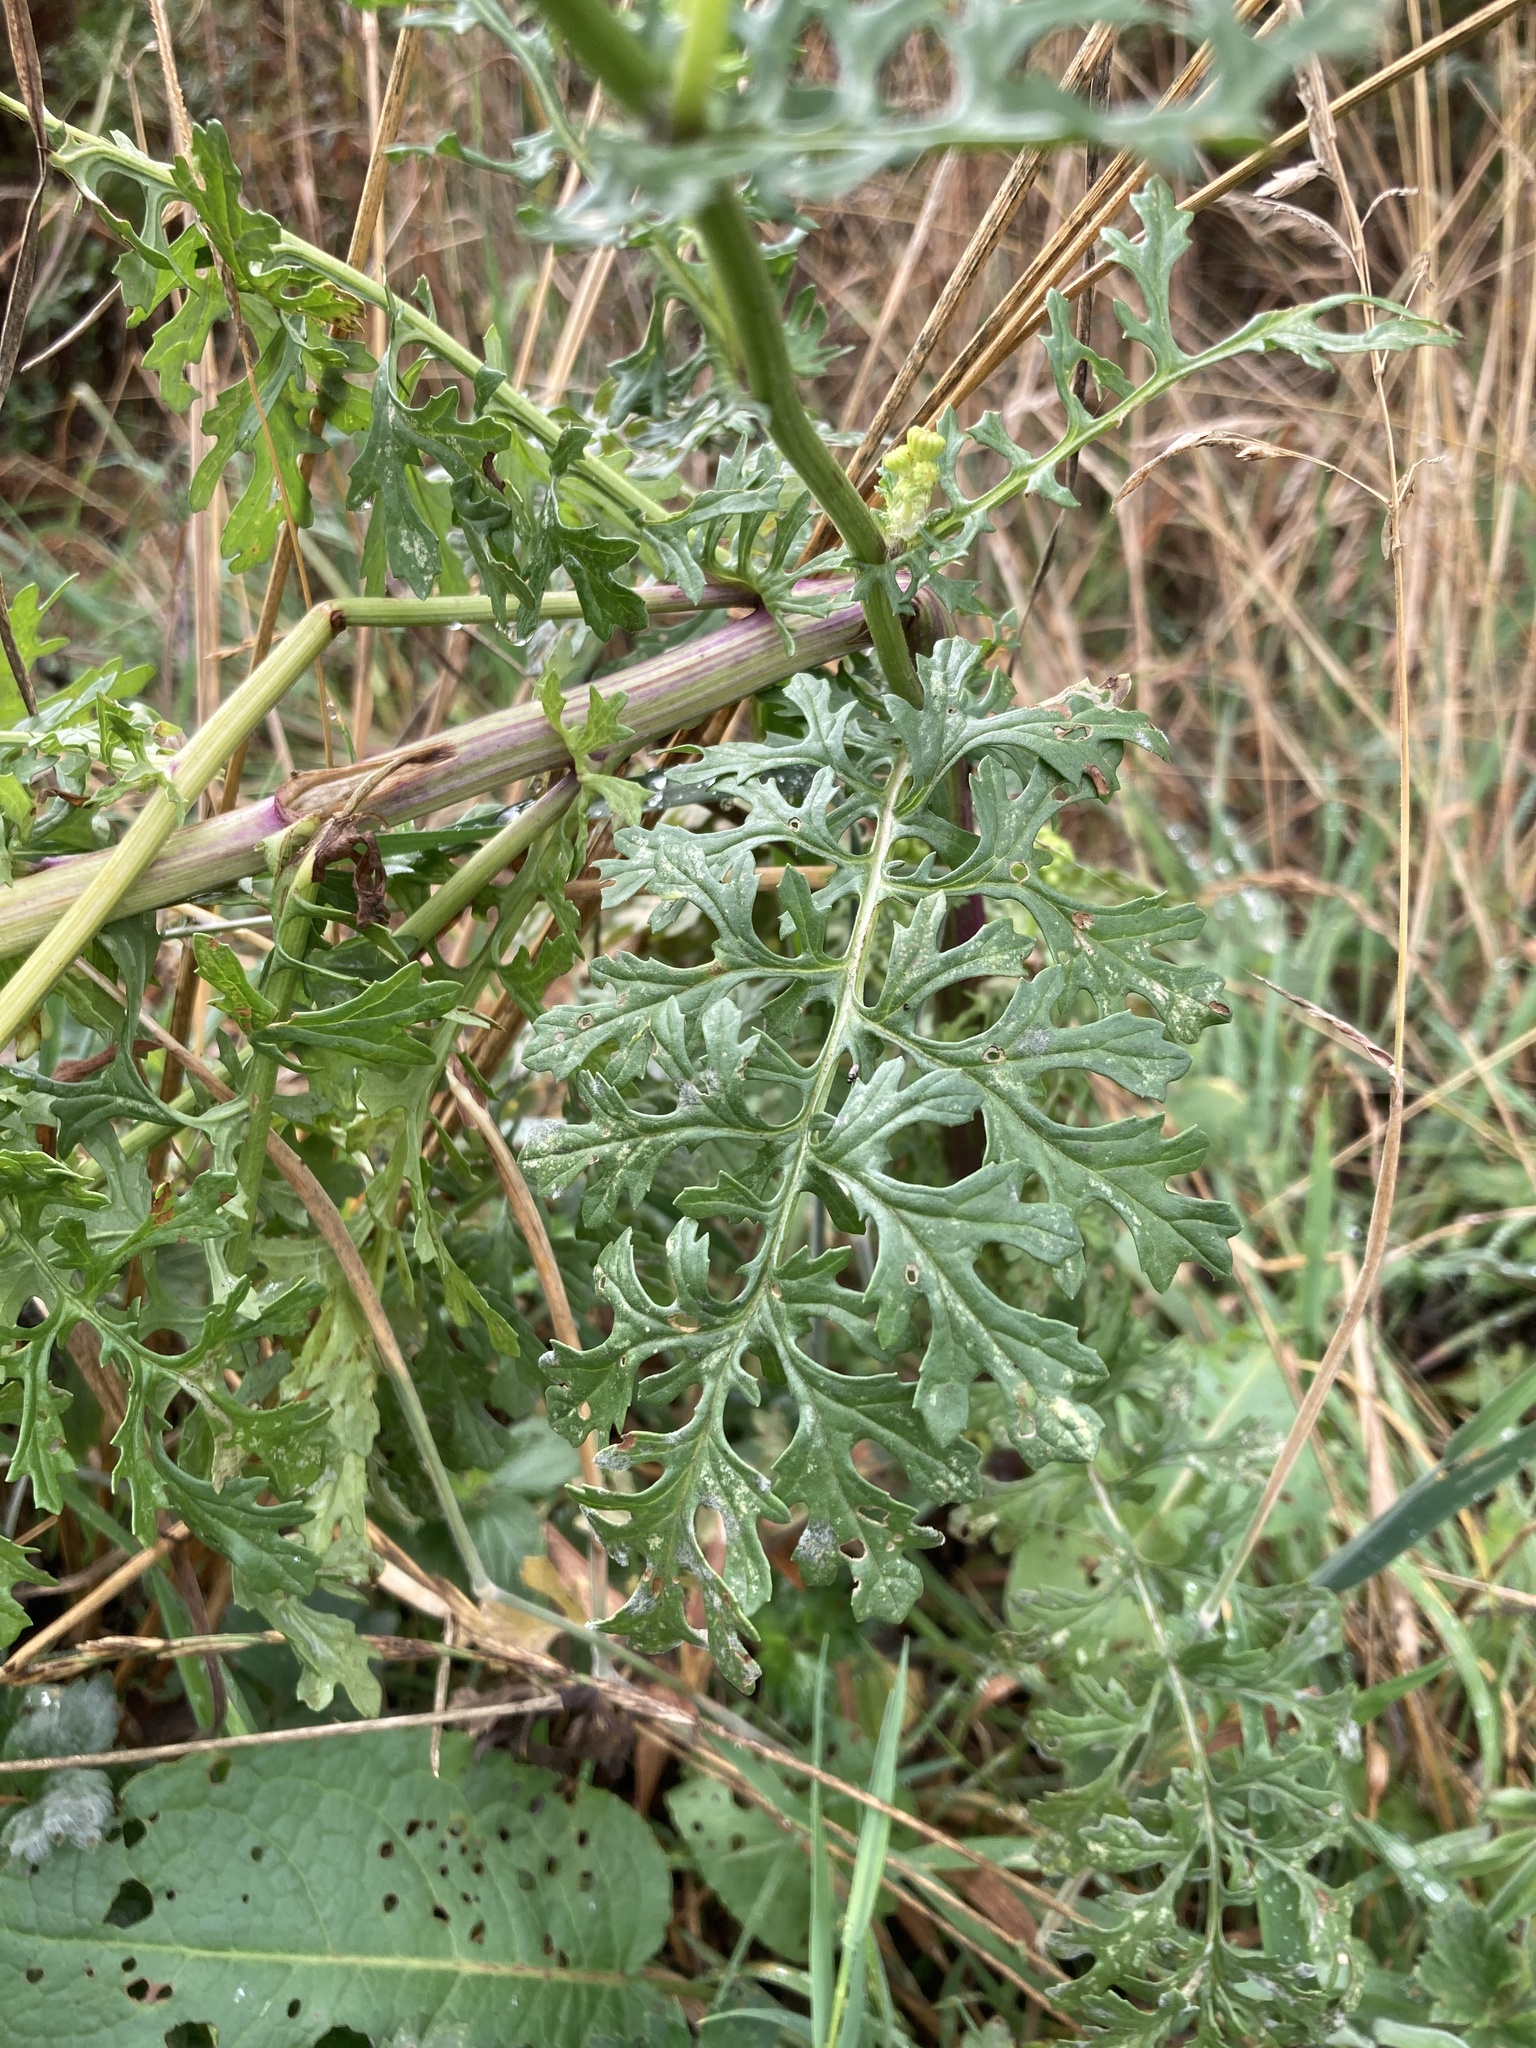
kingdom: Plantae
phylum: Tracheophyta
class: Magnoliopsida
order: Asterales
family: Asteraceae
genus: Jacobaea
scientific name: Jacobaea vulgaris
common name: Stinking willie
